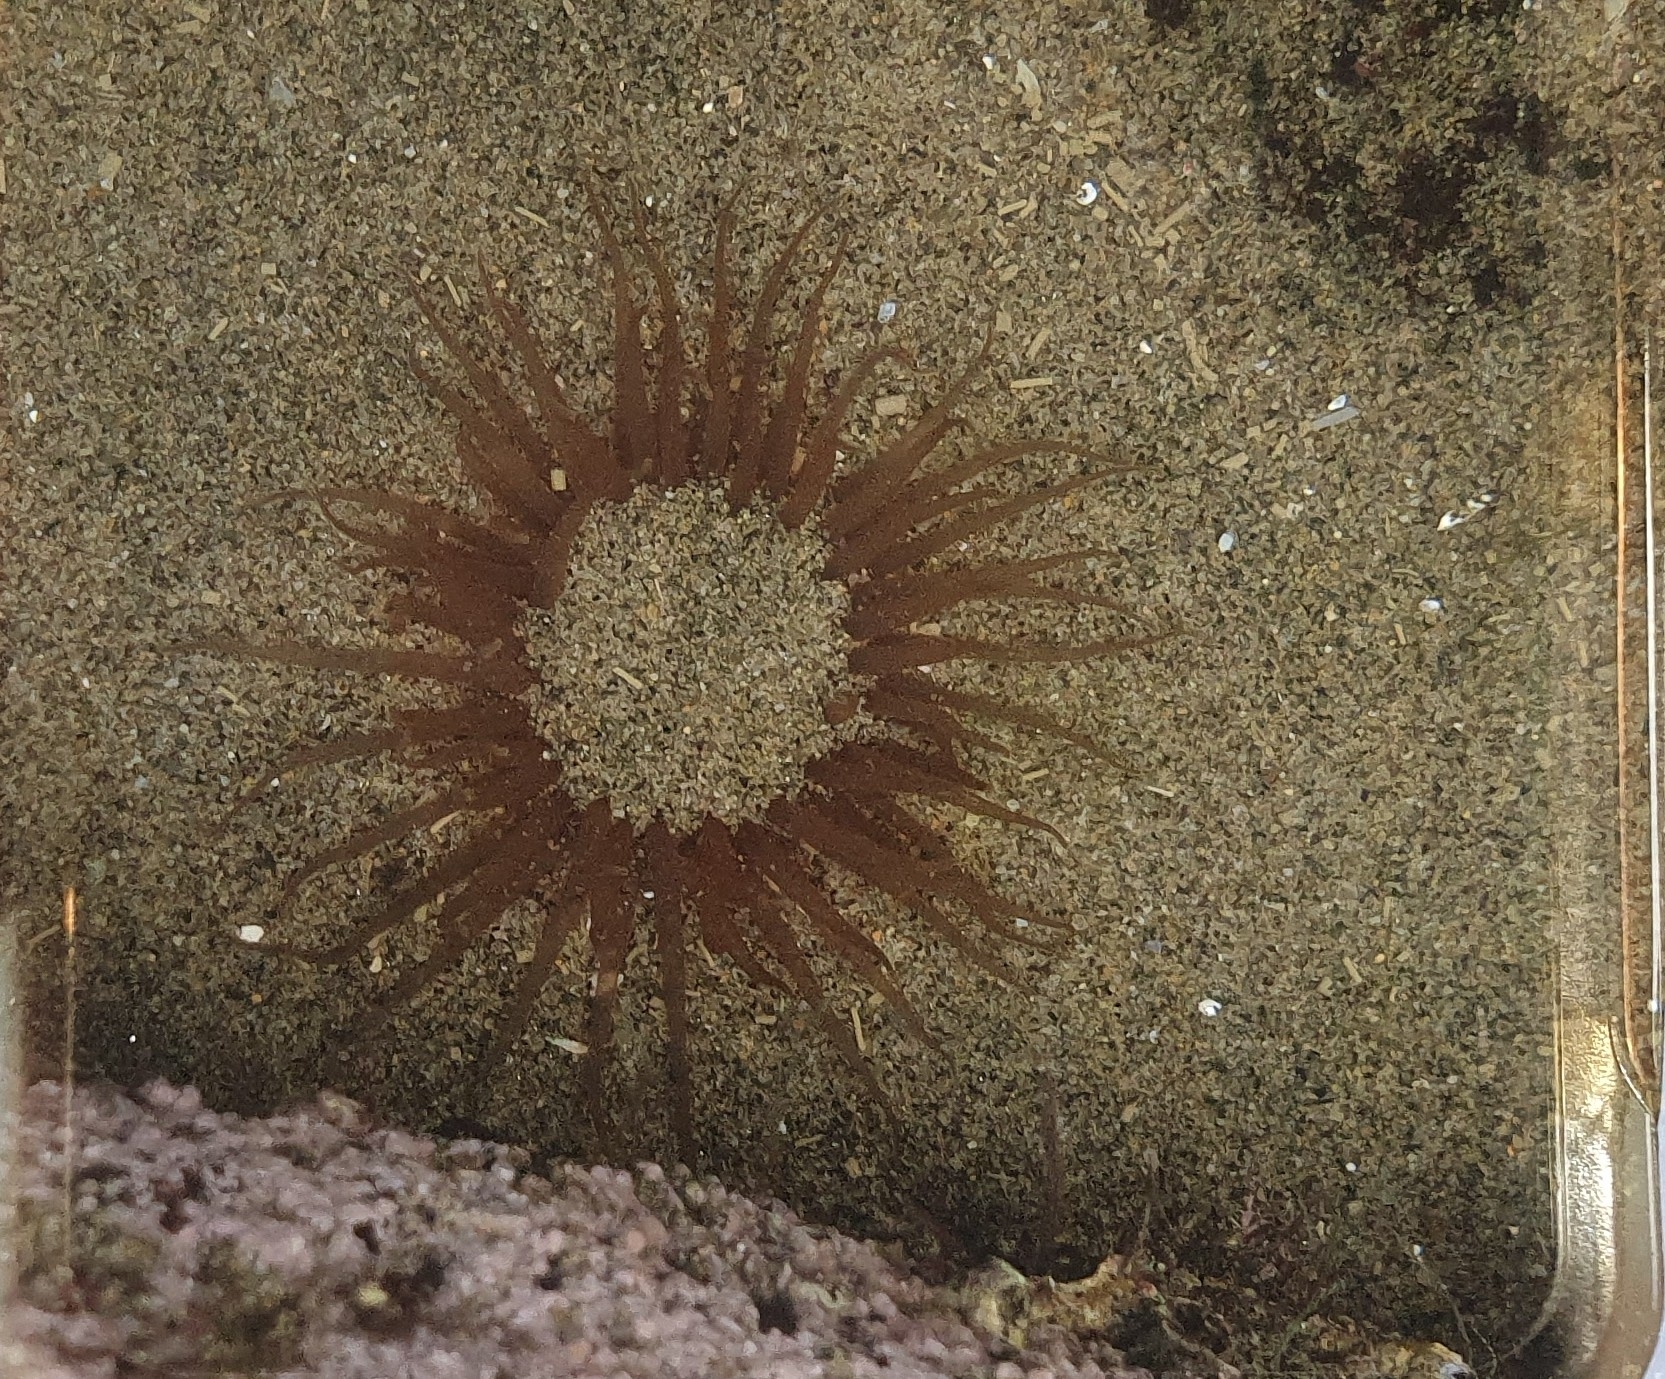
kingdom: Animalia
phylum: Cnidaria
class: Anthozoa
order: Actiniaria
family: Actiniidae
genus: Isactinia
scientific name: Isactinia olivacea
